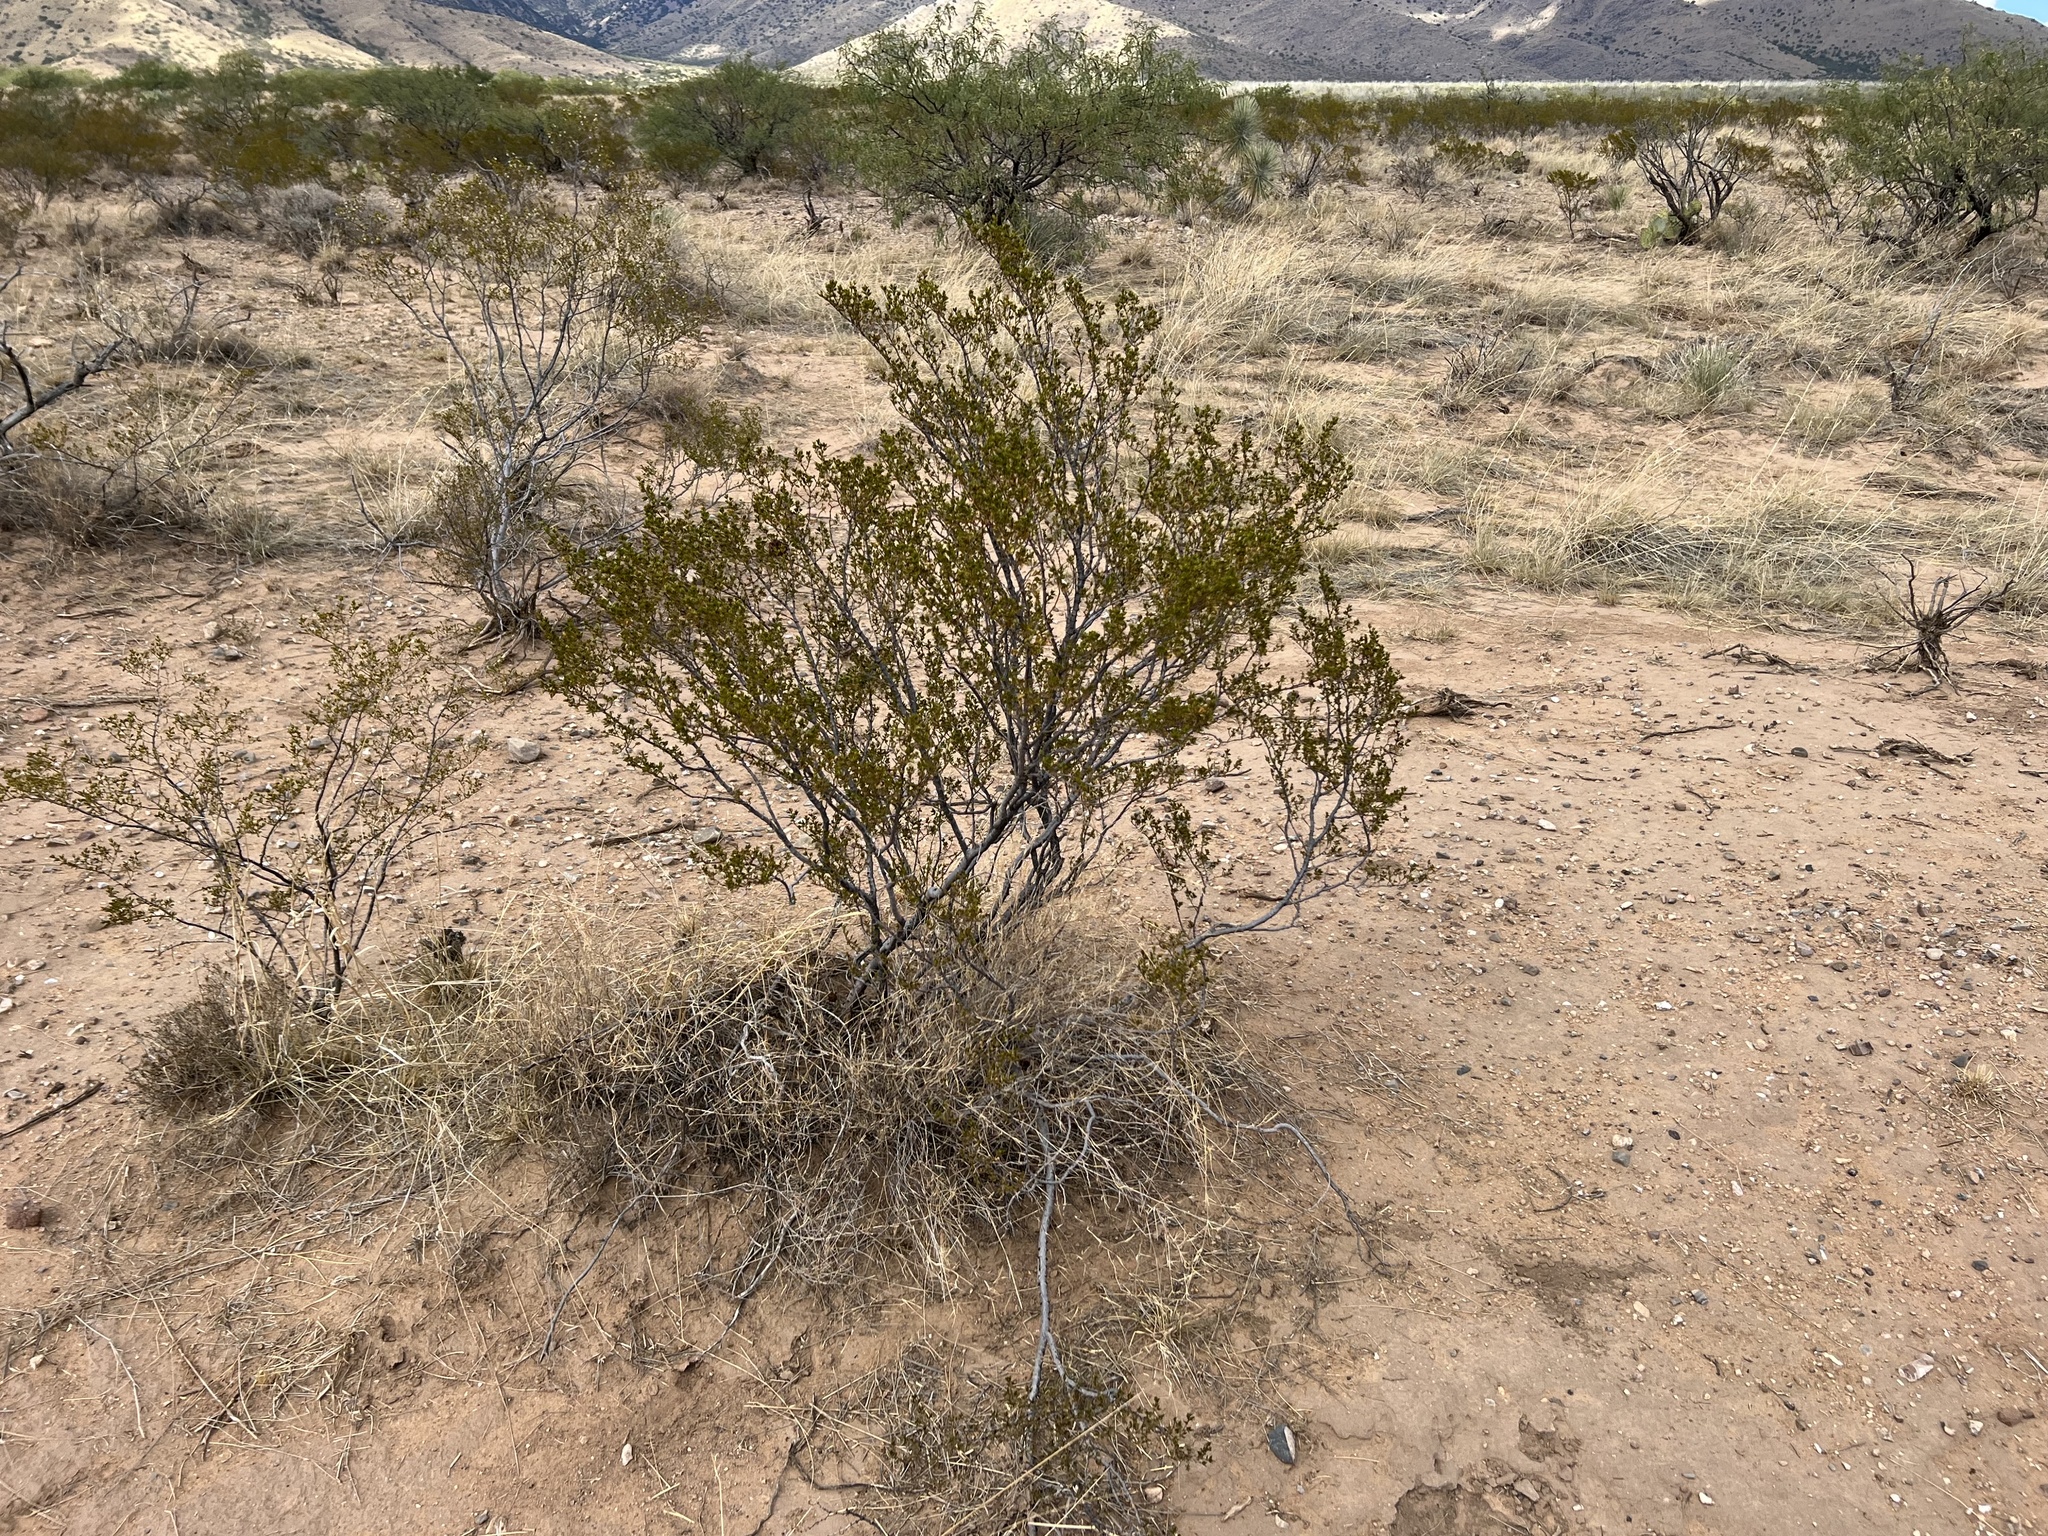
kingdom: Plantae
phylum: Tracheophyta
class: Magnoliopsida
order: Zygophyllales
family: Zygophyllaceae
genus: Larrea
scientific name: Larrea tridentata
